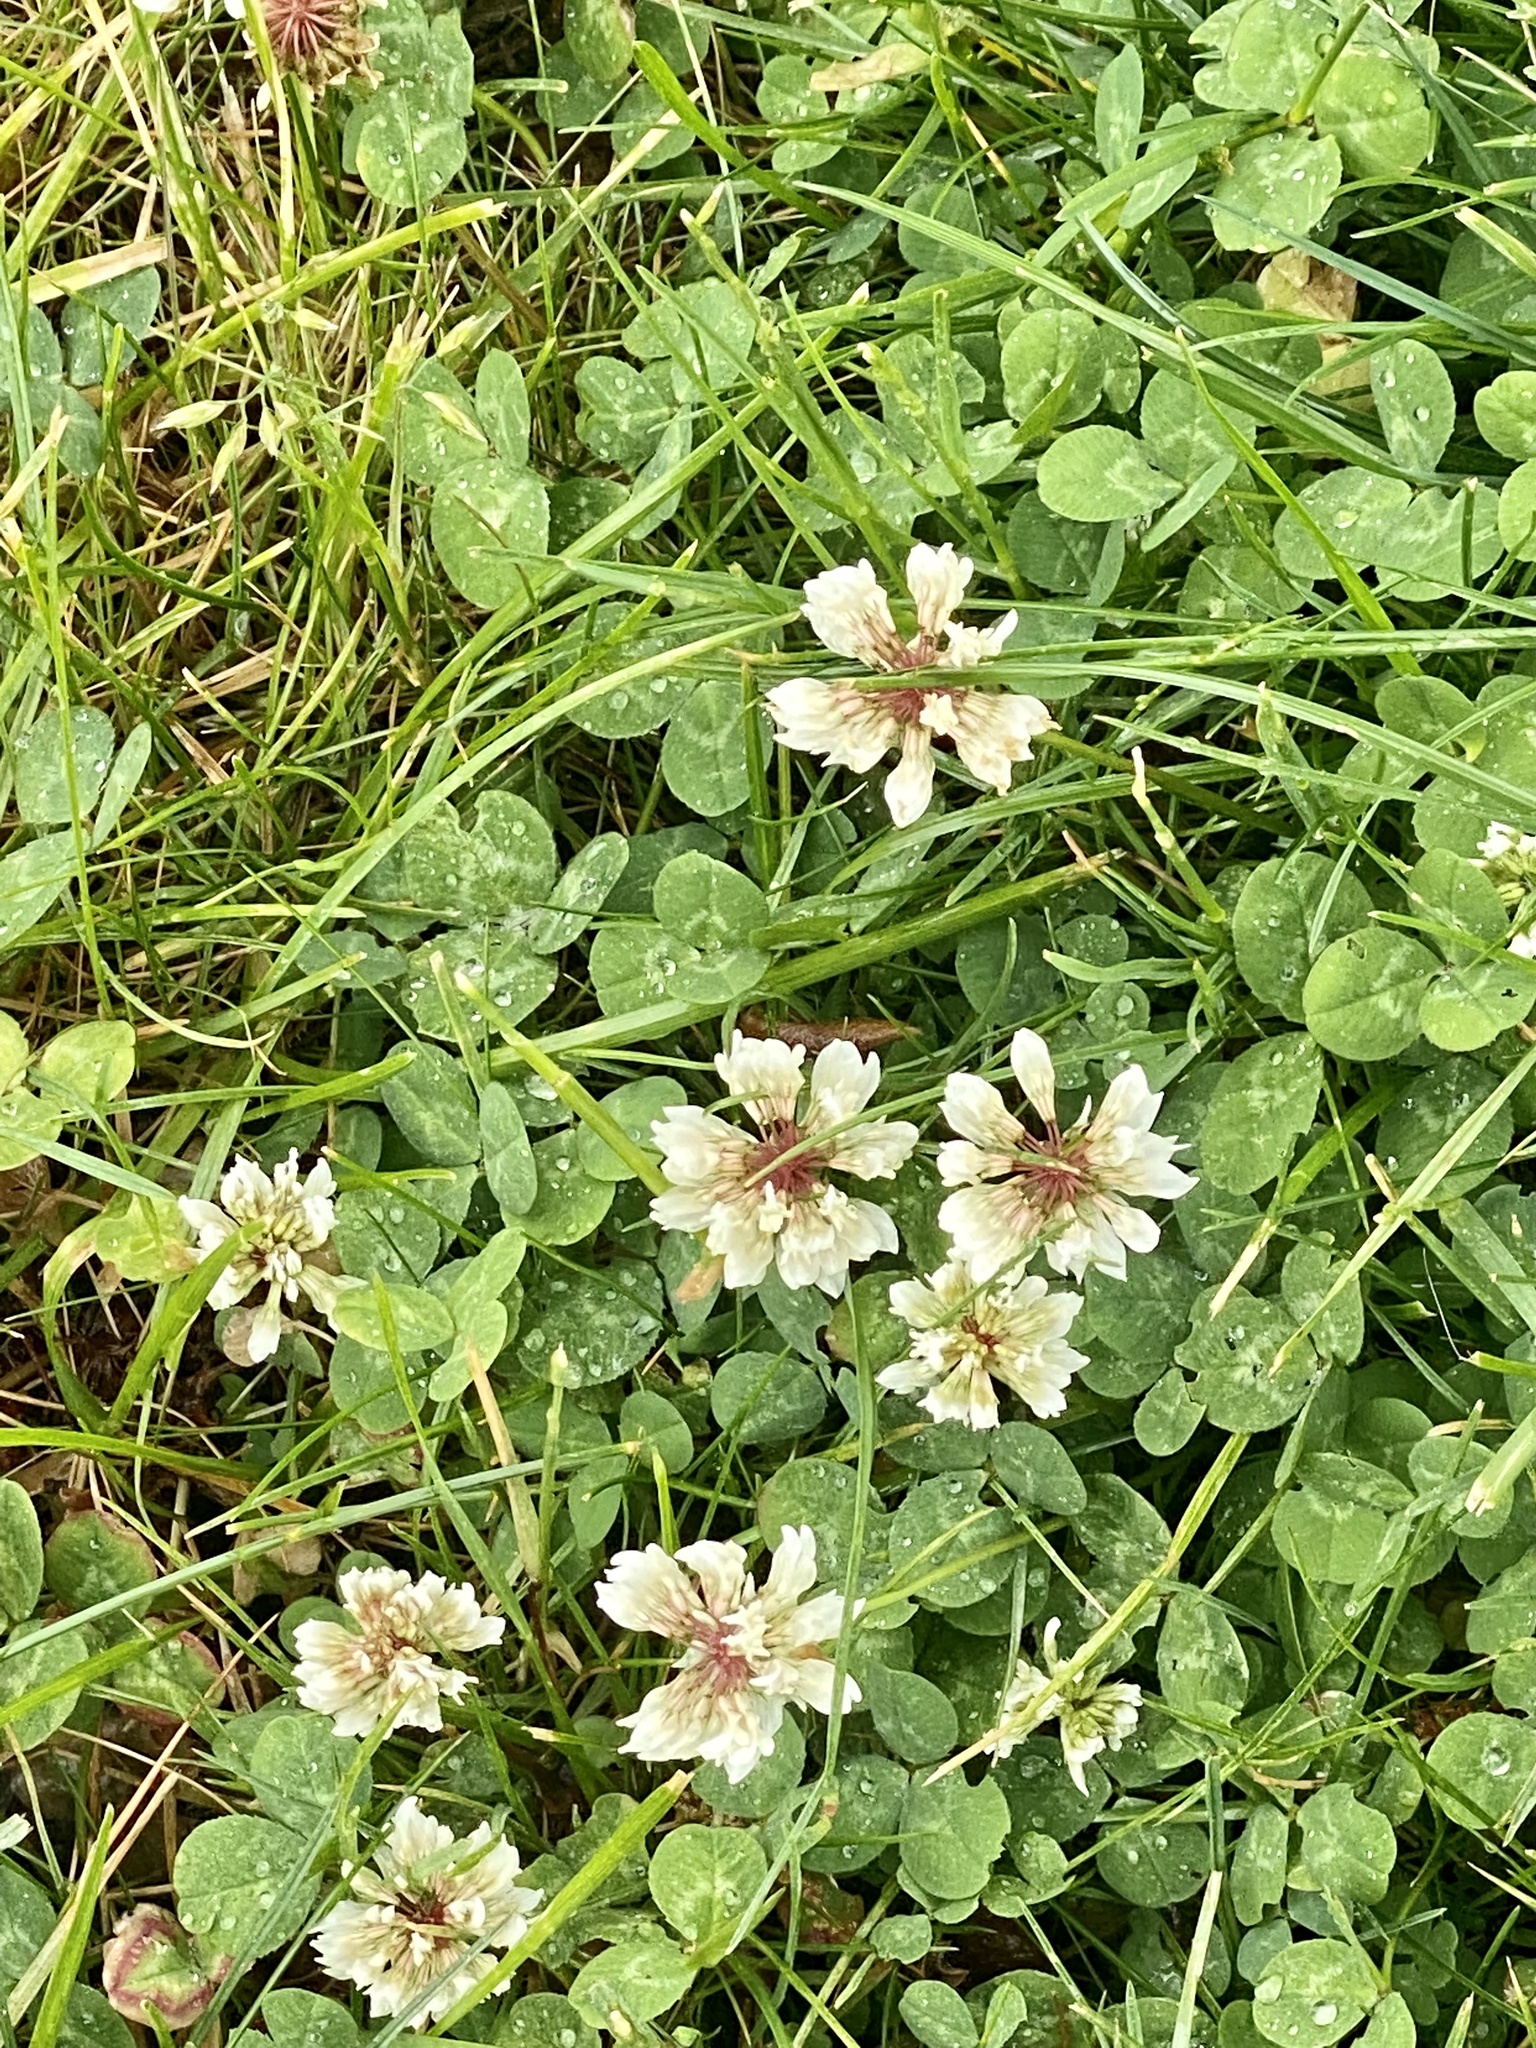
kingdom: Plantae
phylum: Tracheophyta
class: Magnoliopsida
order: Fabales
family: Fabaceae
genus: Trifolium
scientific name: Trifolium repens
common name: White clover
